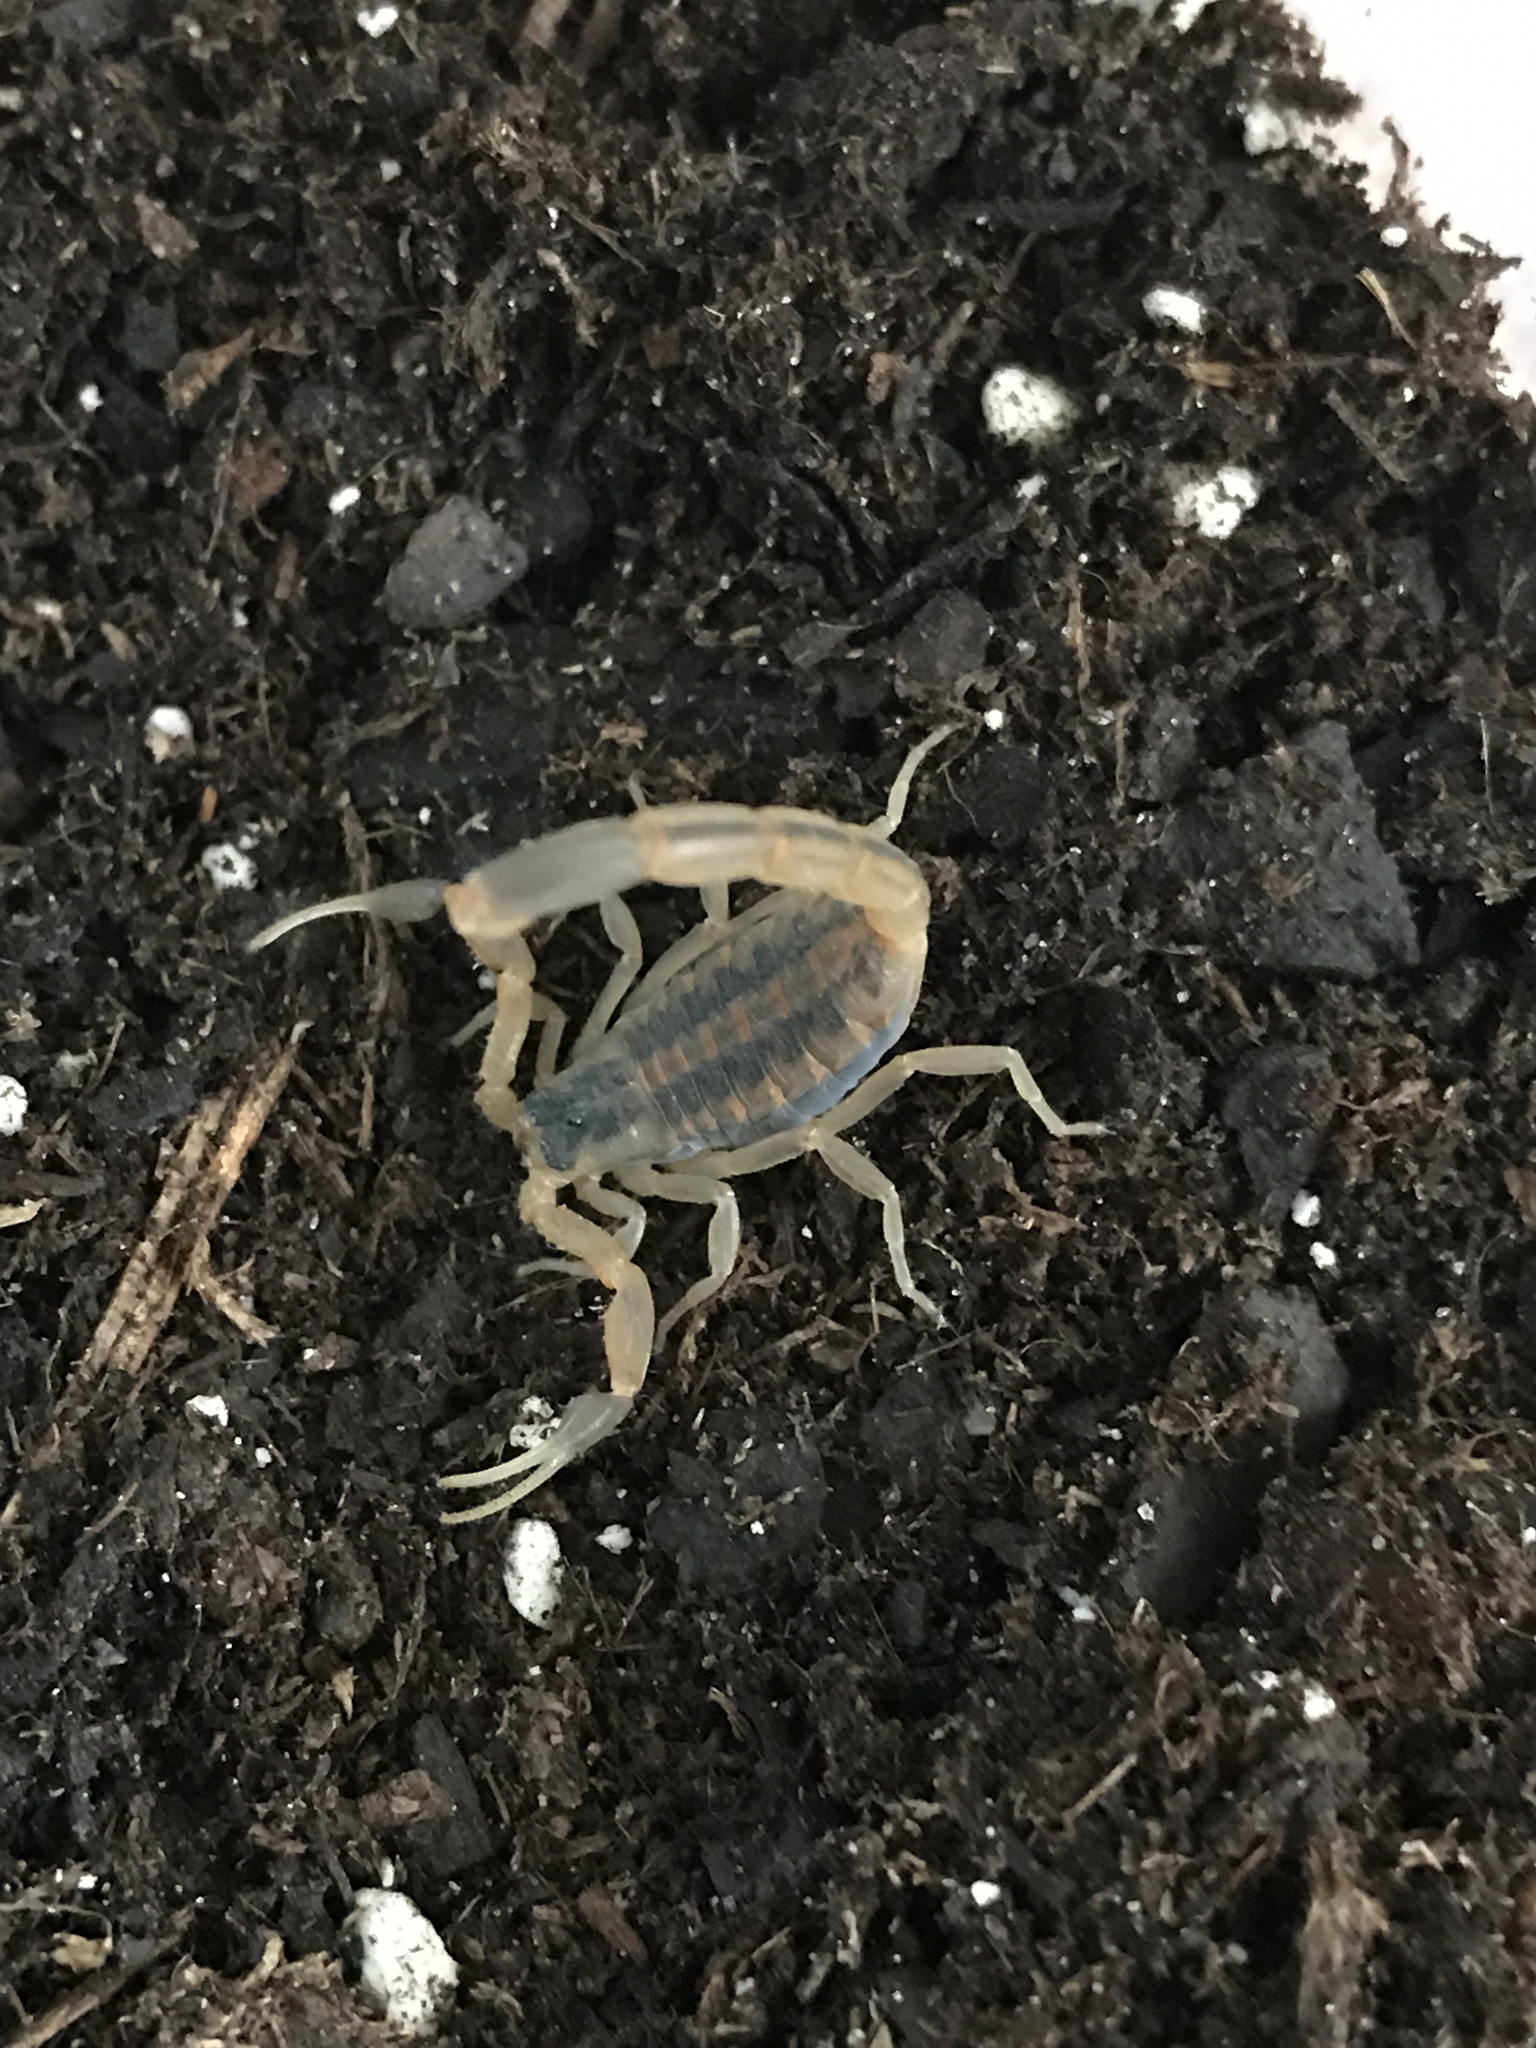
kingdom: Animalia
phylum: Arthropoda
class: Arachnida
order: Scorpiones
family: Buthidae
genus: Centruroides
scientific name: Centruroides vittatus
